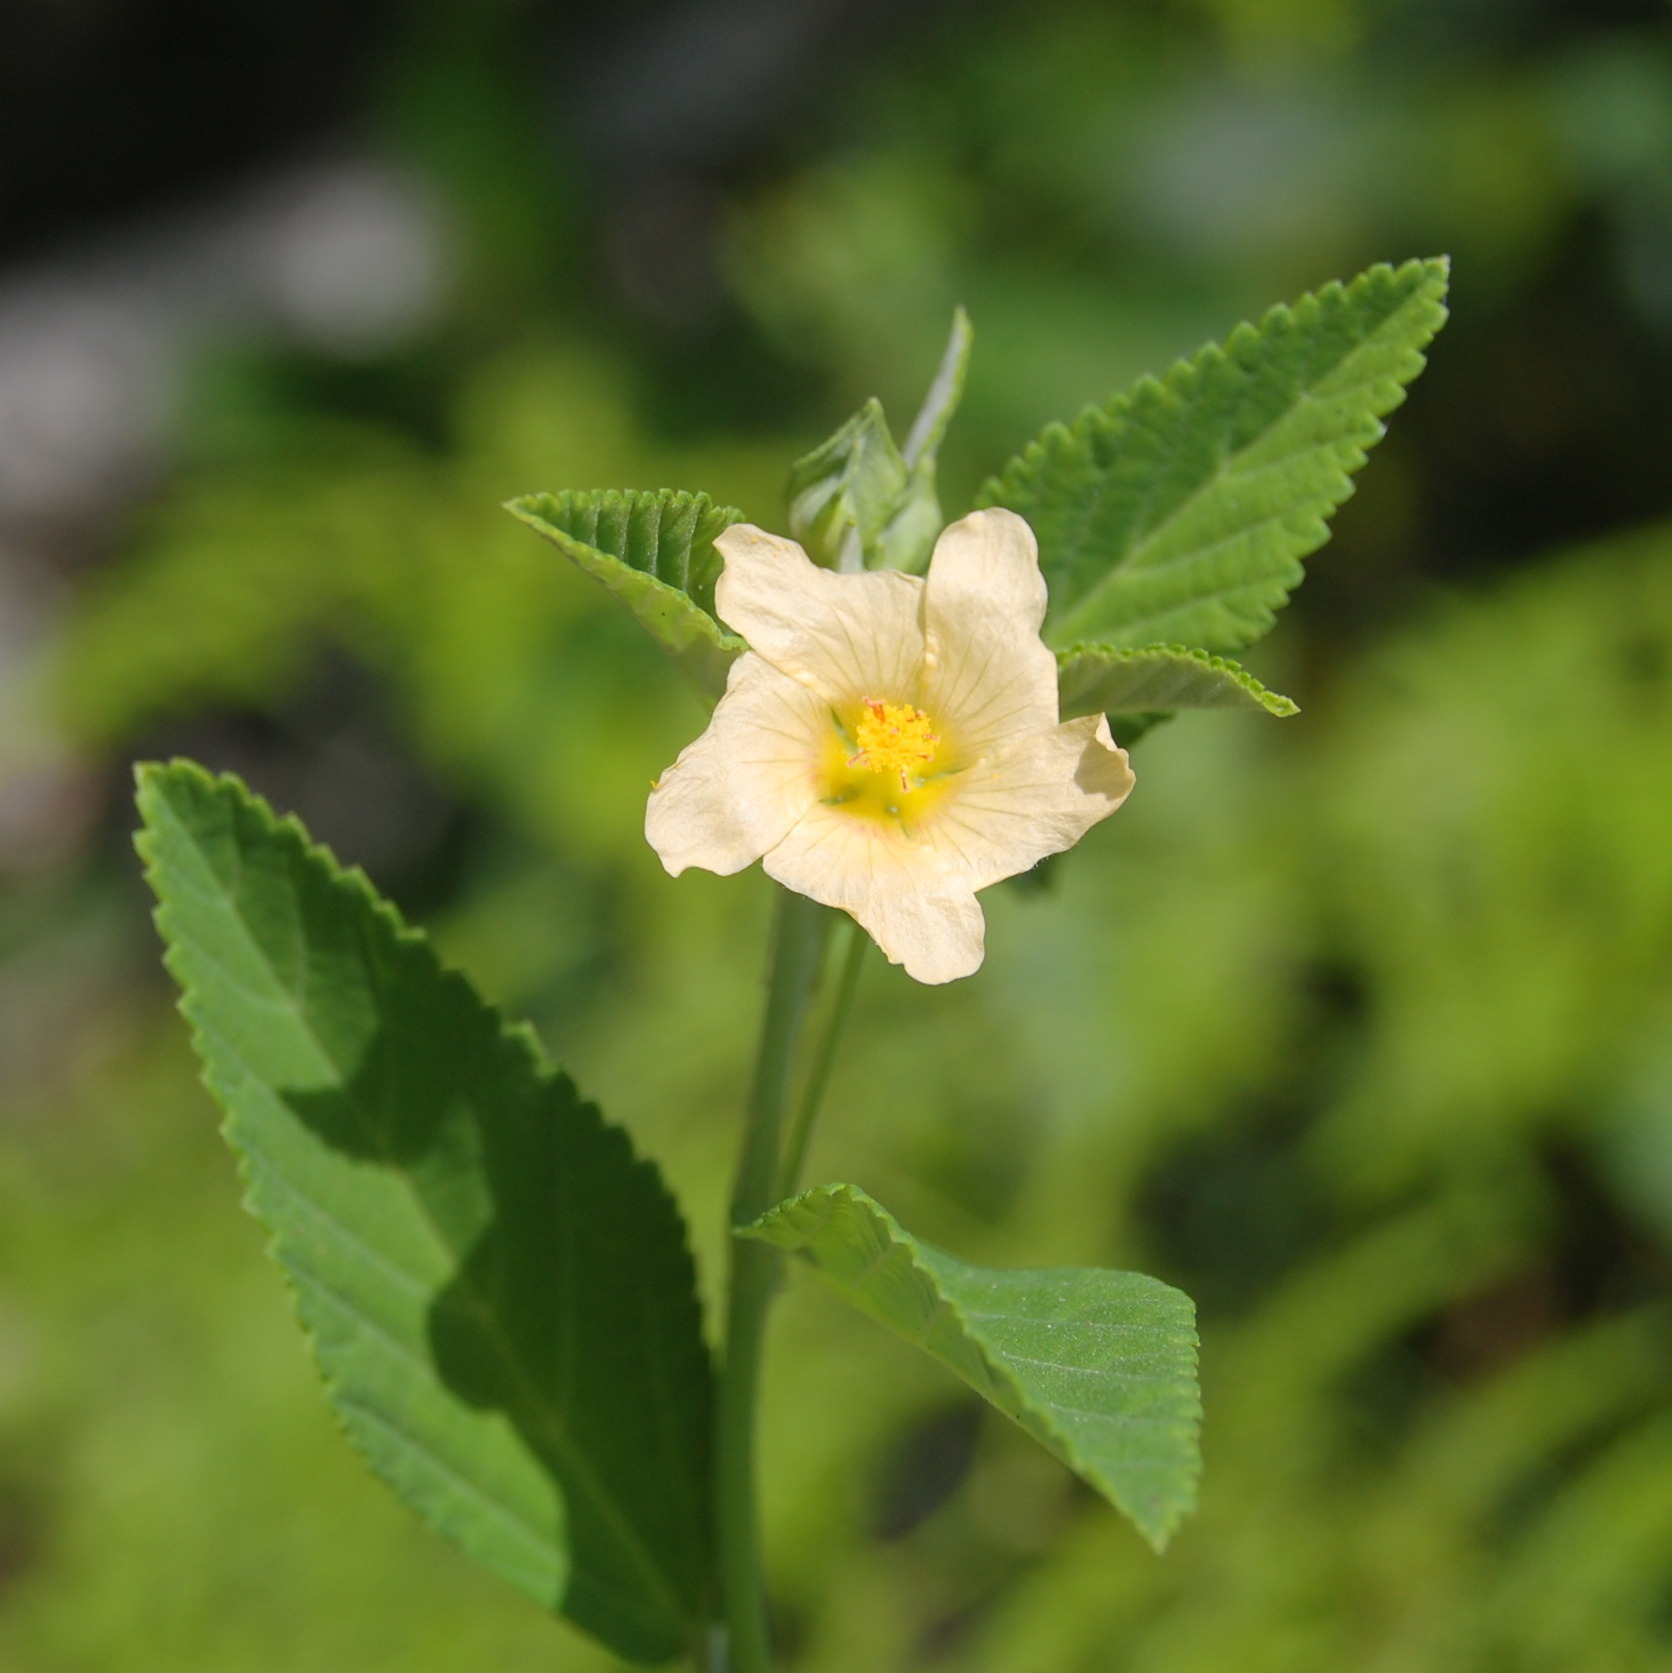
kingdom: Plantae
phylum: Tracheophyta
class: Magnoliopsida
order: Malvales
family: Malvaceae
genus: Sida
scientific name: Sida rhombifolia
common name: Queensland-hemp
